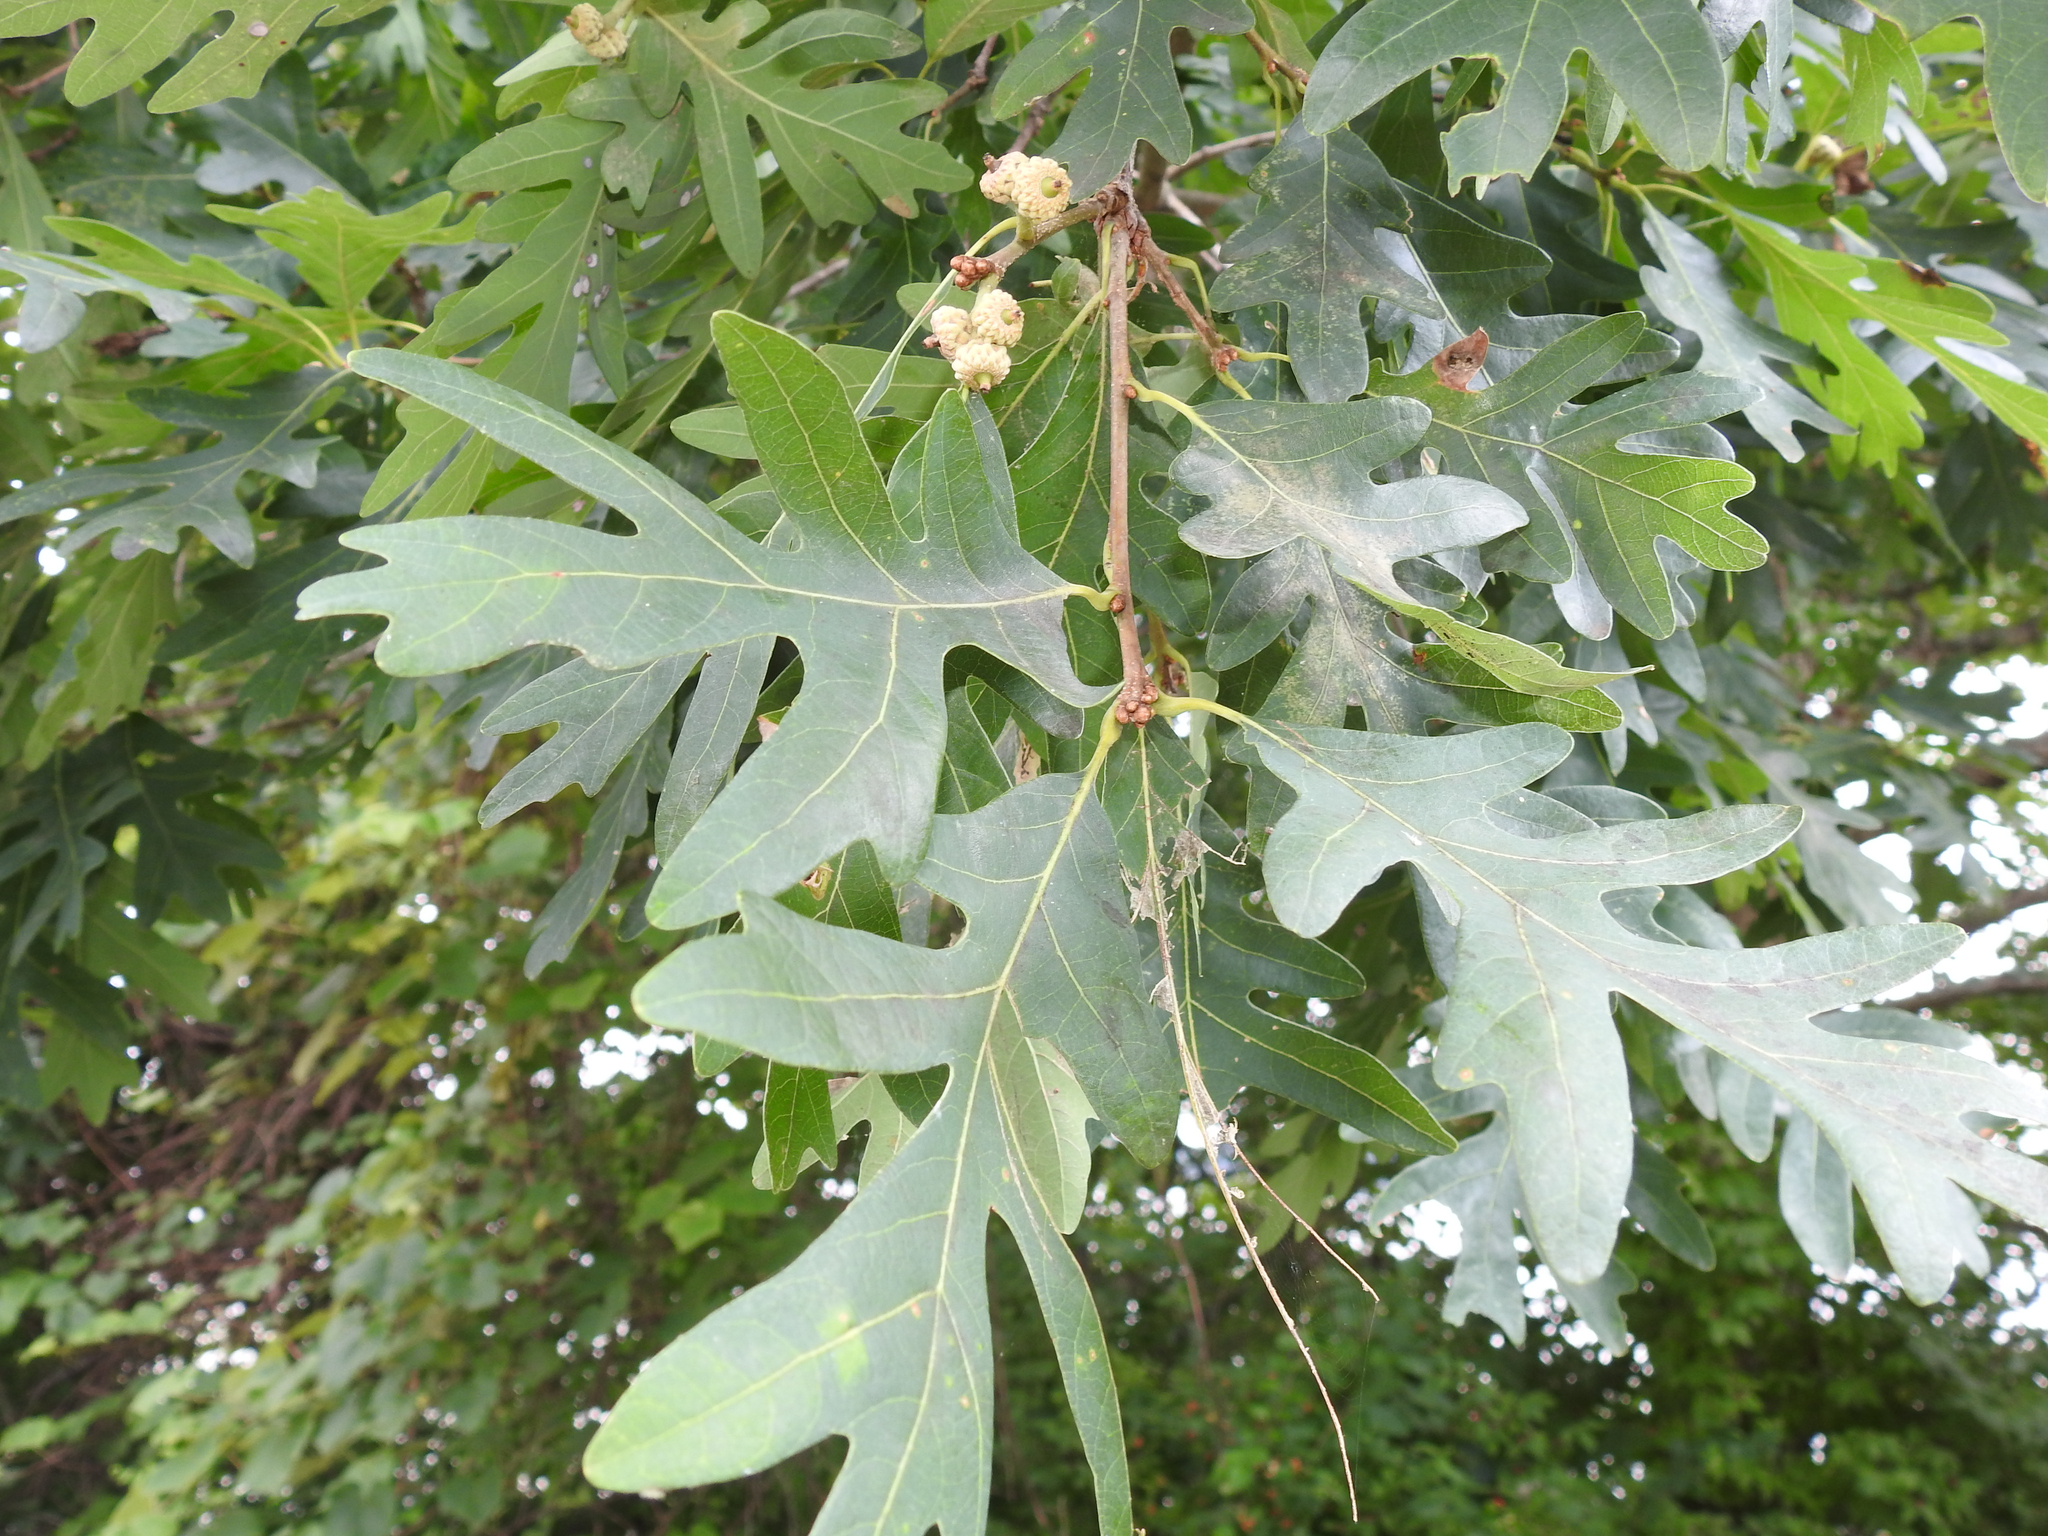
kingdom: Plantae
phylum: Tracheophyta
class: Magnoliopsida
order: Fagales
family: Fagaceae
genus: Quercus
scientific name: Quercus alba
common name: White oak
